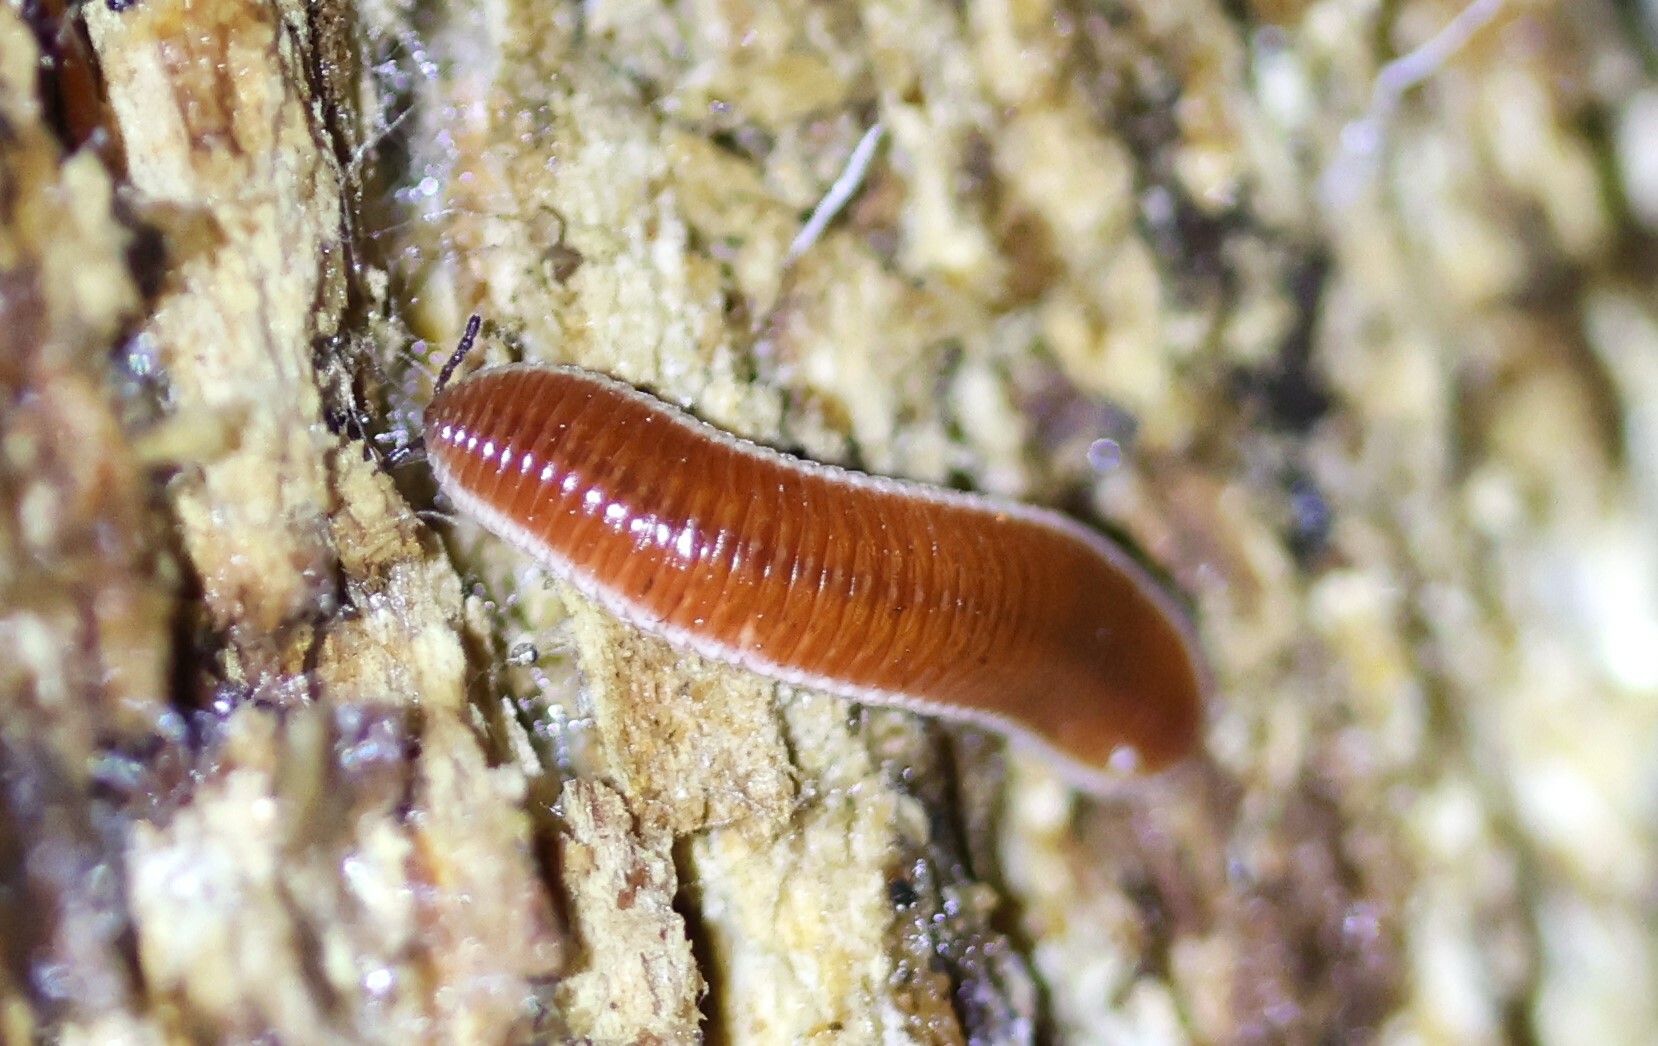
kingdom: Animalia
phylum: Arthropoda
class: Diplopoda
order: Polyzoniida
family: Polyzoniidae
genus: Bdellozonium
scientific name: Bdellozonium cerviculatum
